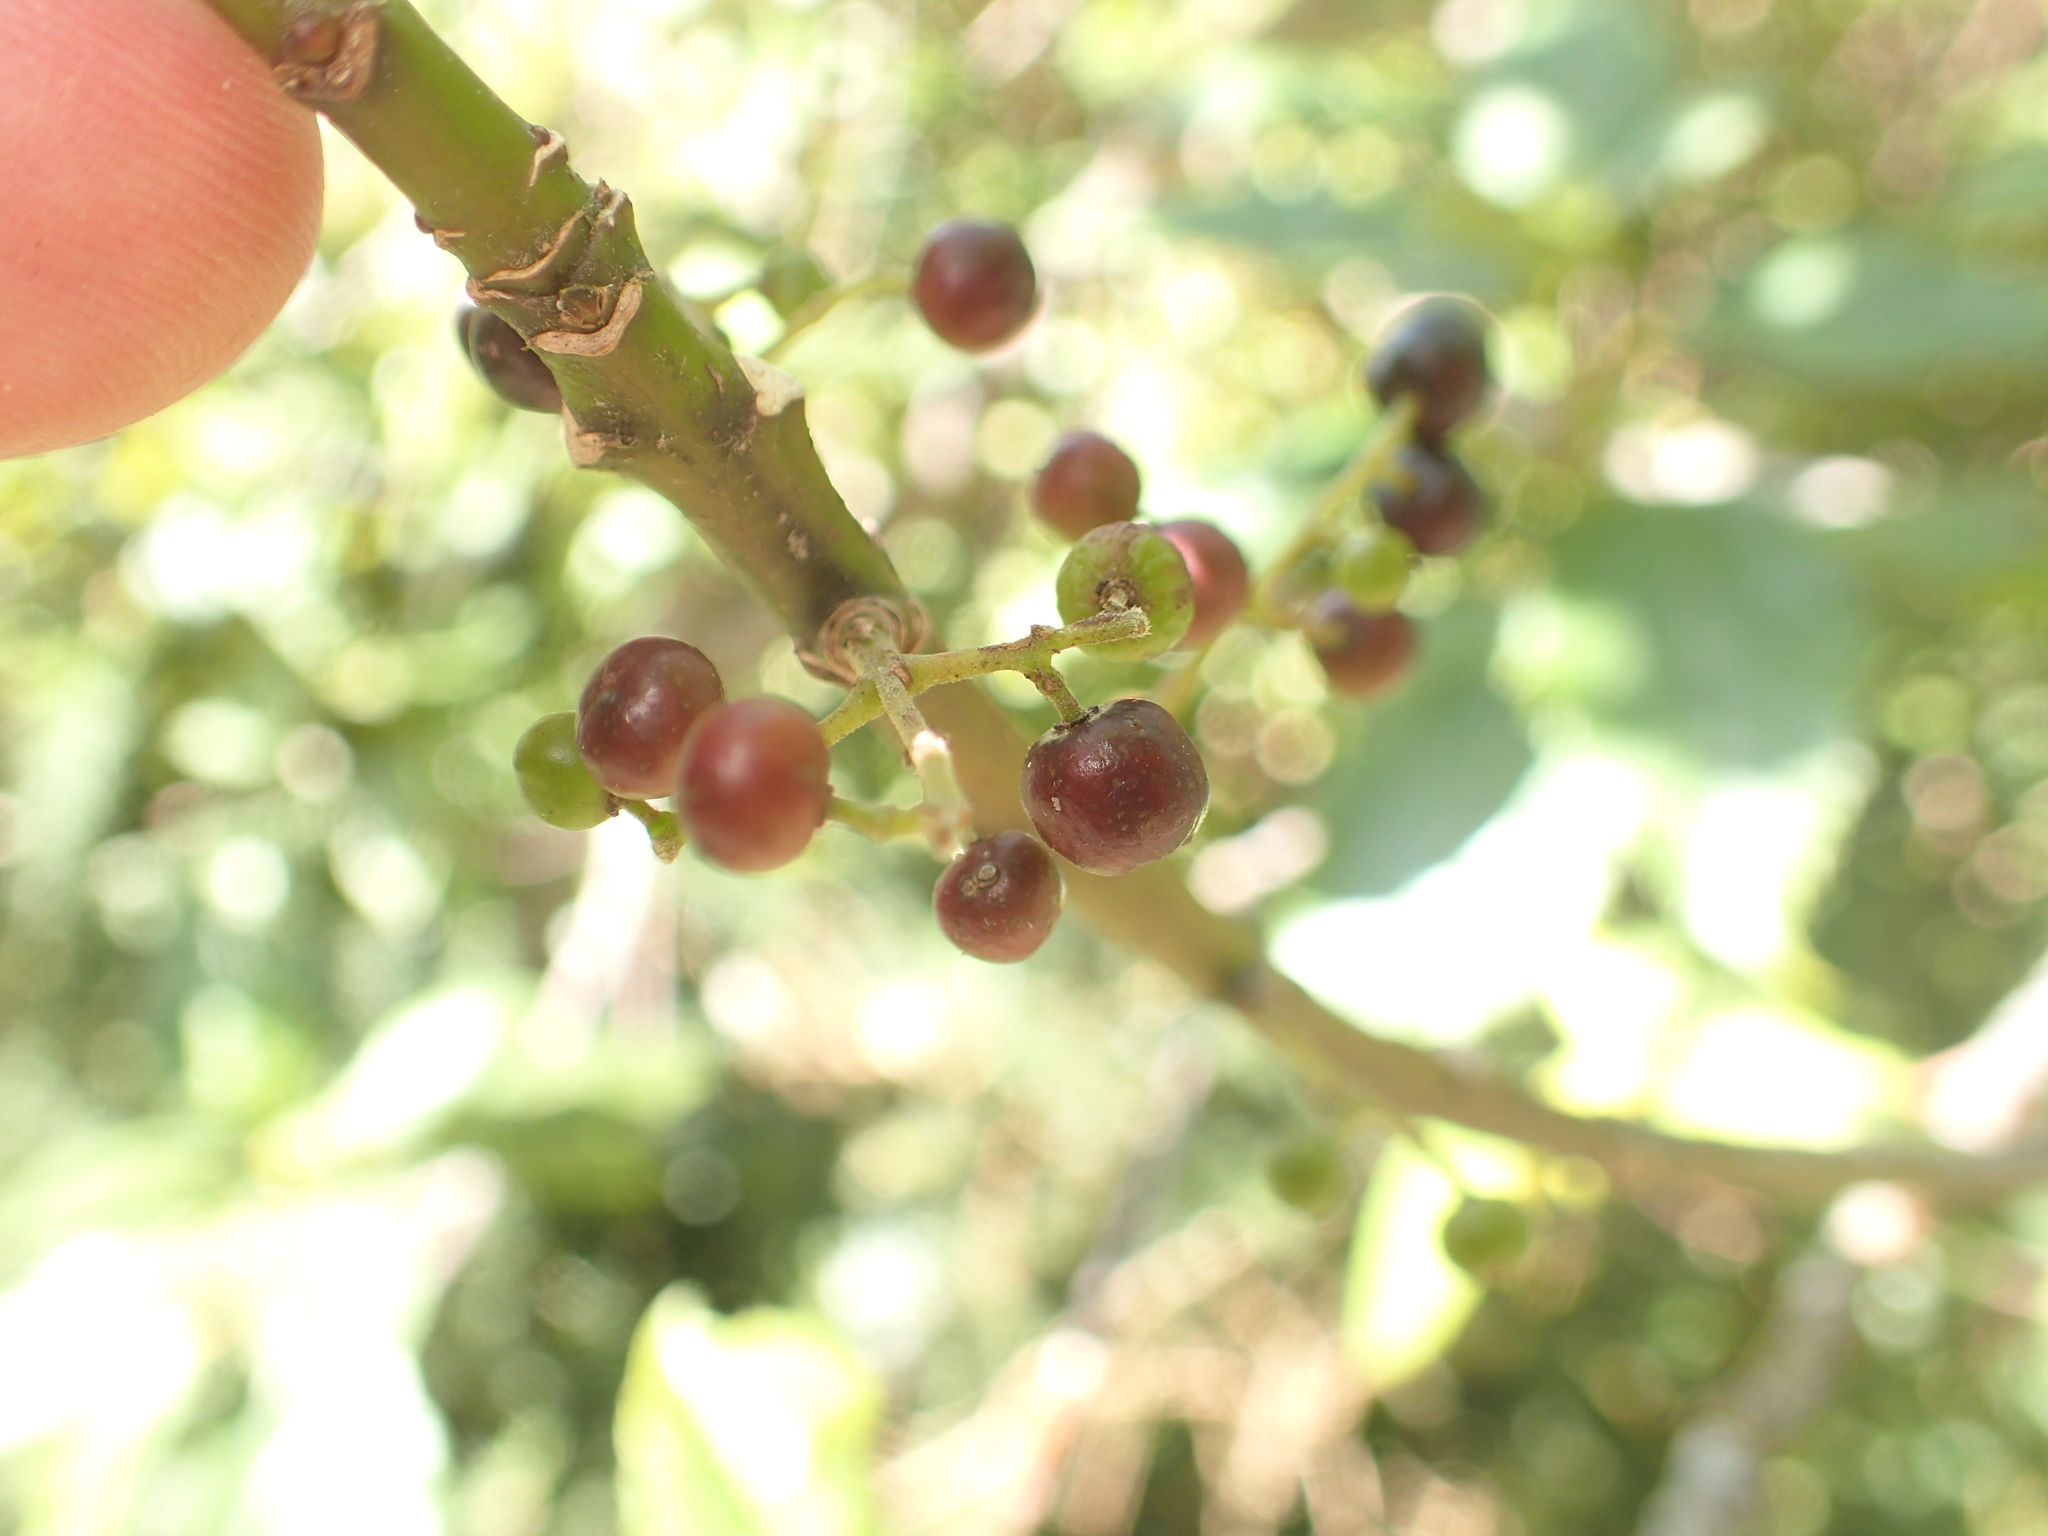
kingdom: Plantae
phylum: Tracheophyta
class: Magnoliopsida
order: Oxalidales
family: Elaeocarpaceae
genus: Aristotelia
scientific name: Aristotelia serrata
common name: New zealand wineberry
